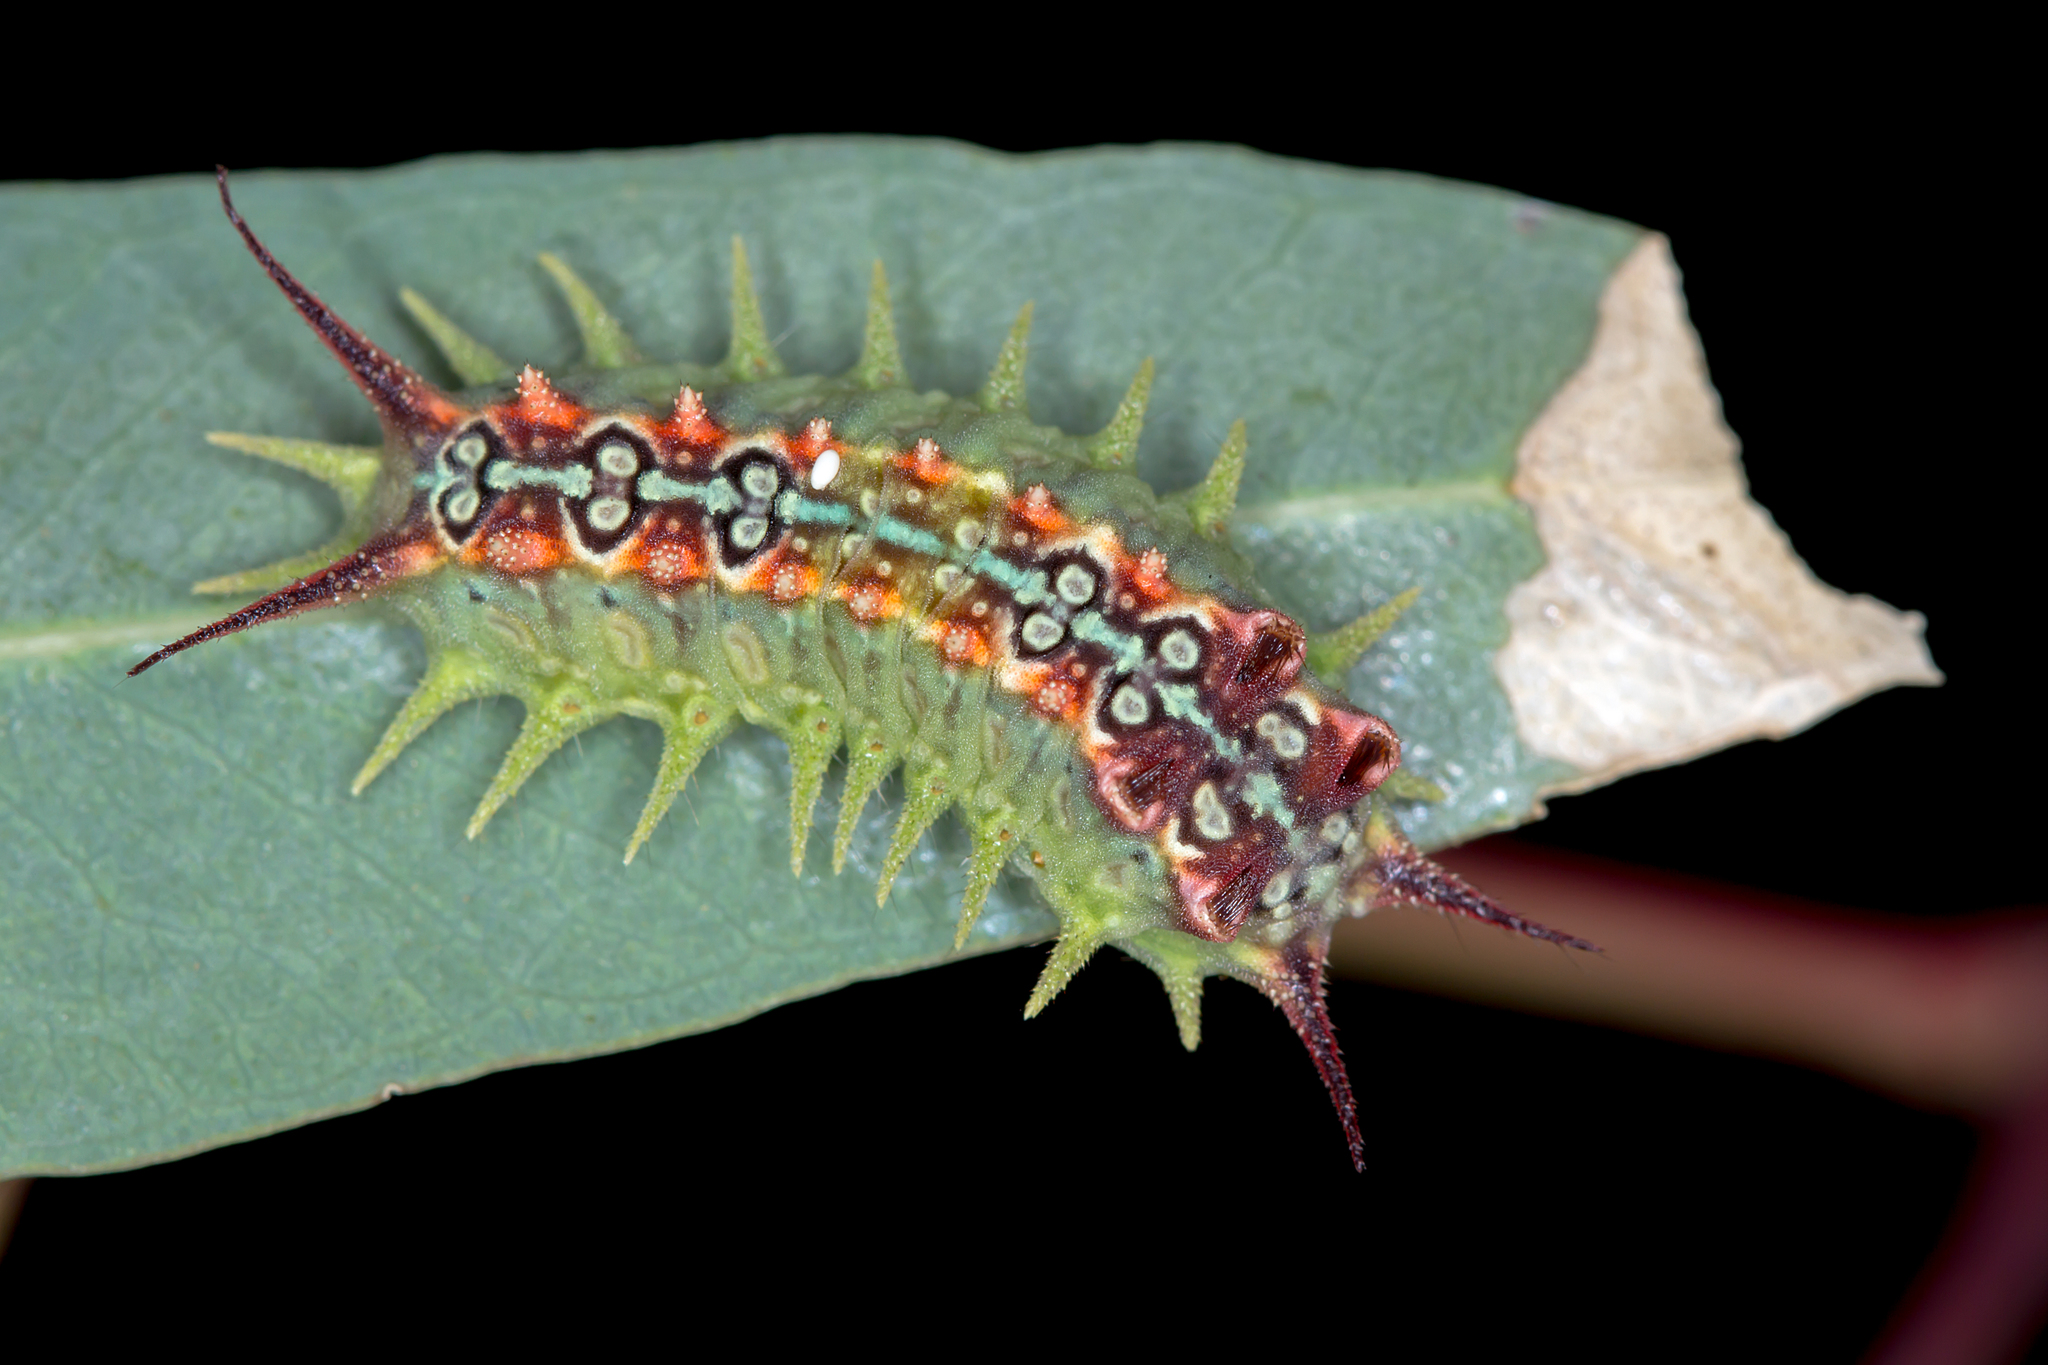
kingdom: Animalia
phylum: Arthropoda
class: Insecta
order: Lepidoptera
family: Limacodidae
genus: Doratifera
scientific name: Doratifera quadriguttata
